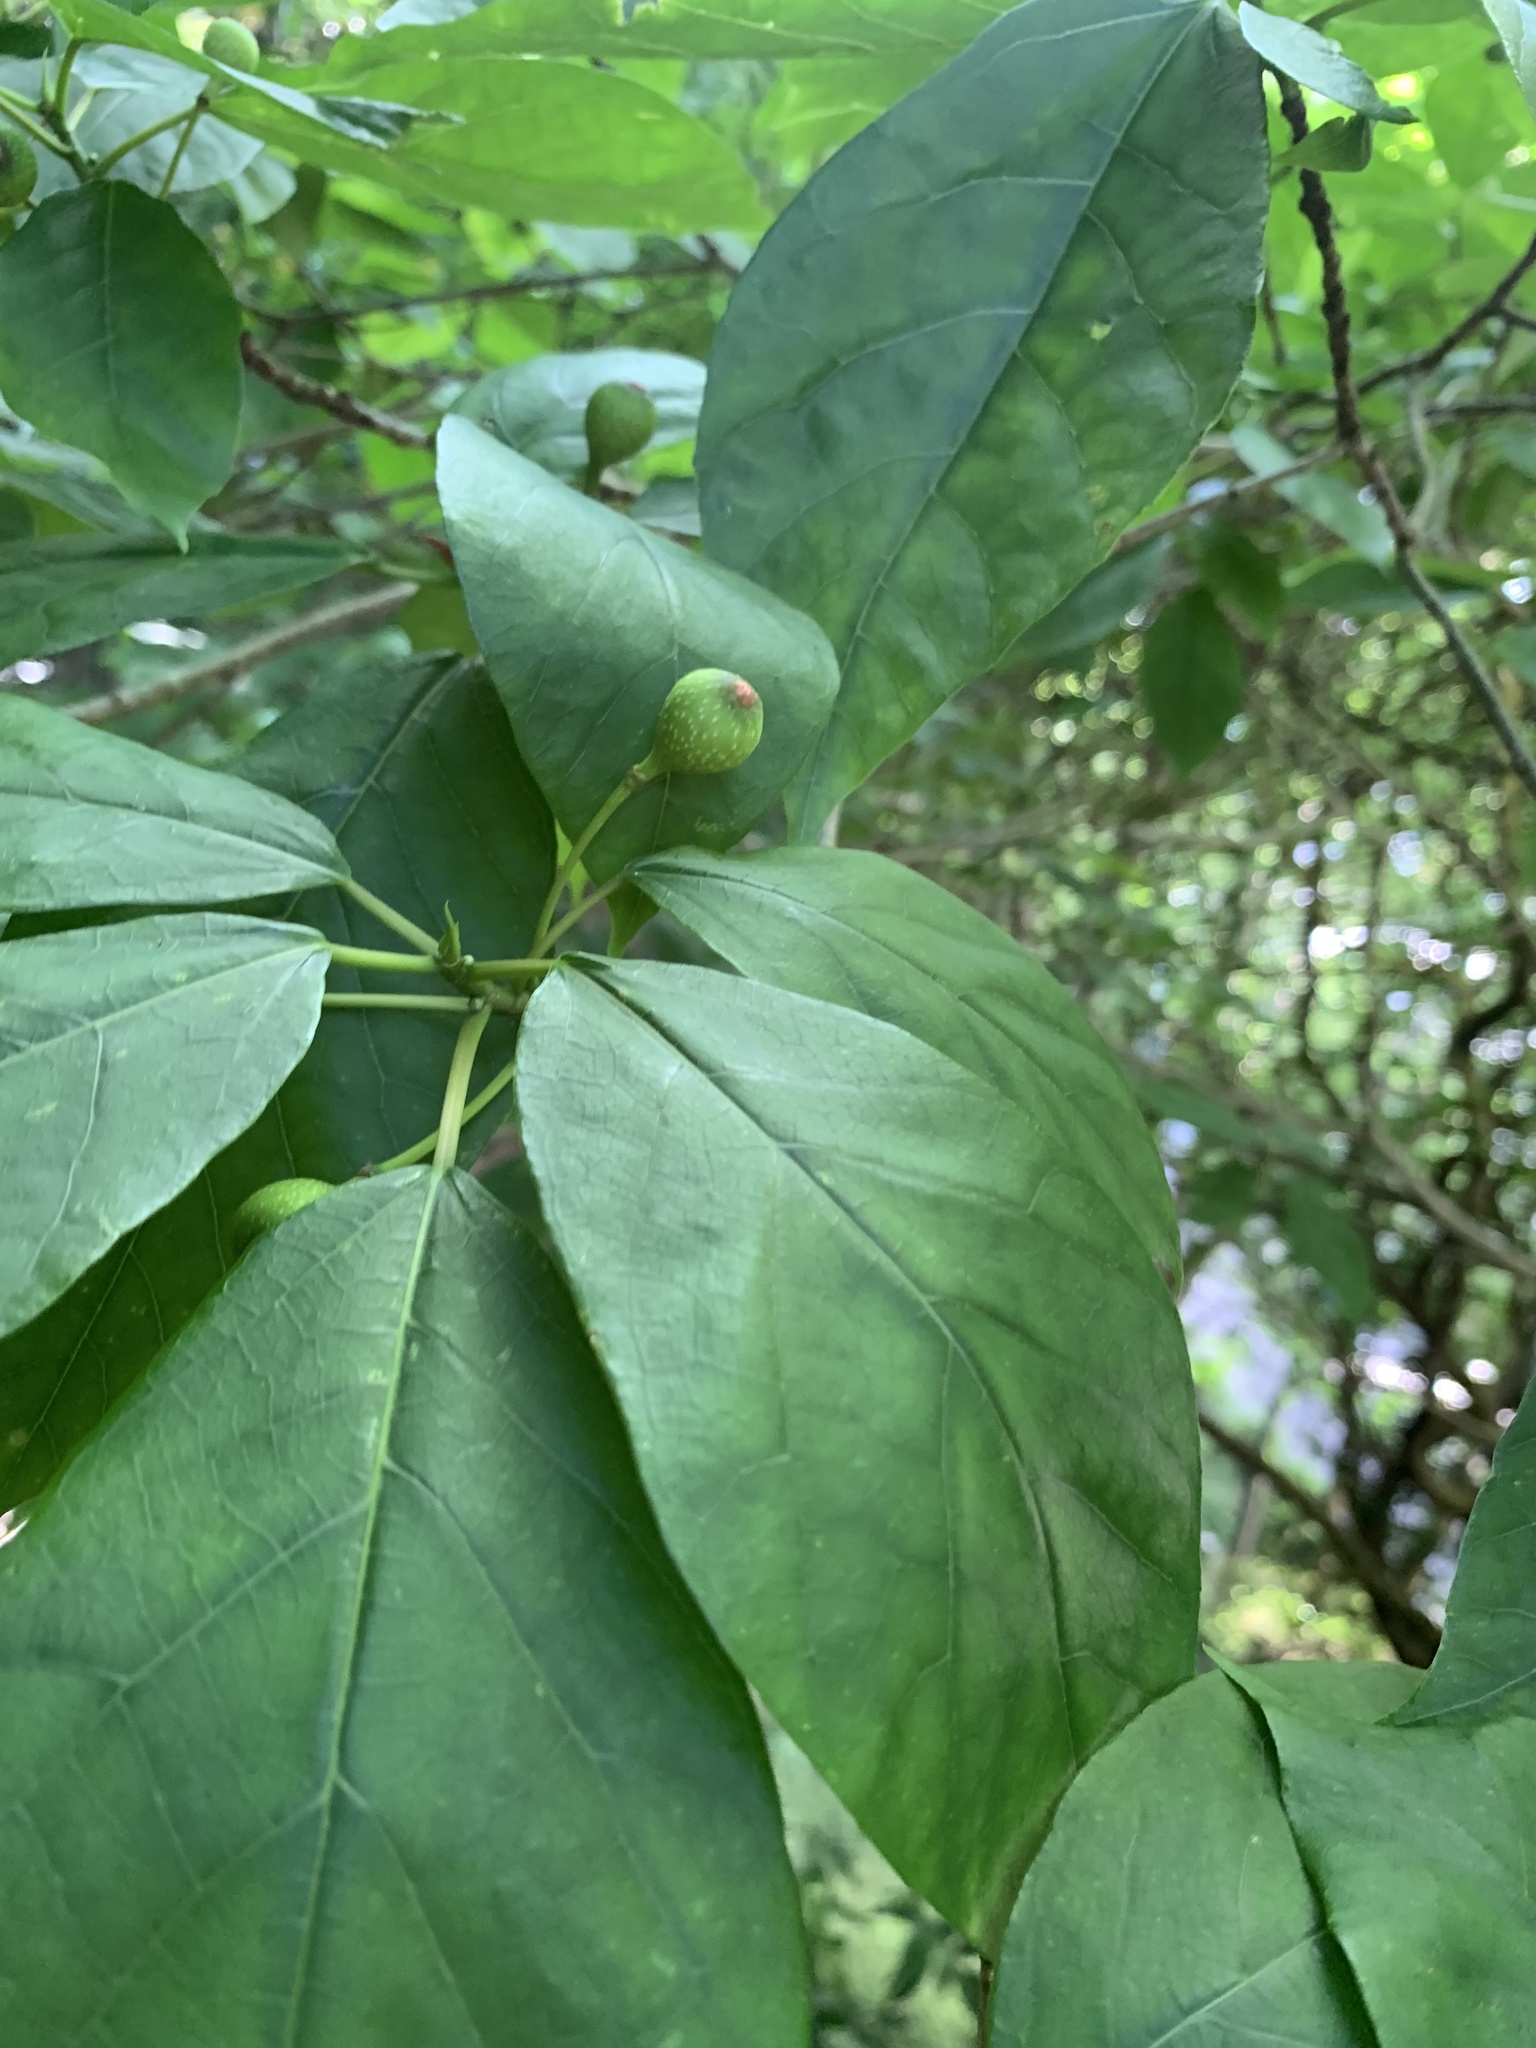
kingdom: Plantae
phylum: Tracheophyta
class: Magnoliopsida
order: Rosales
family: Moraceae
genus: Ficus
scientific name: Ficus erecta
